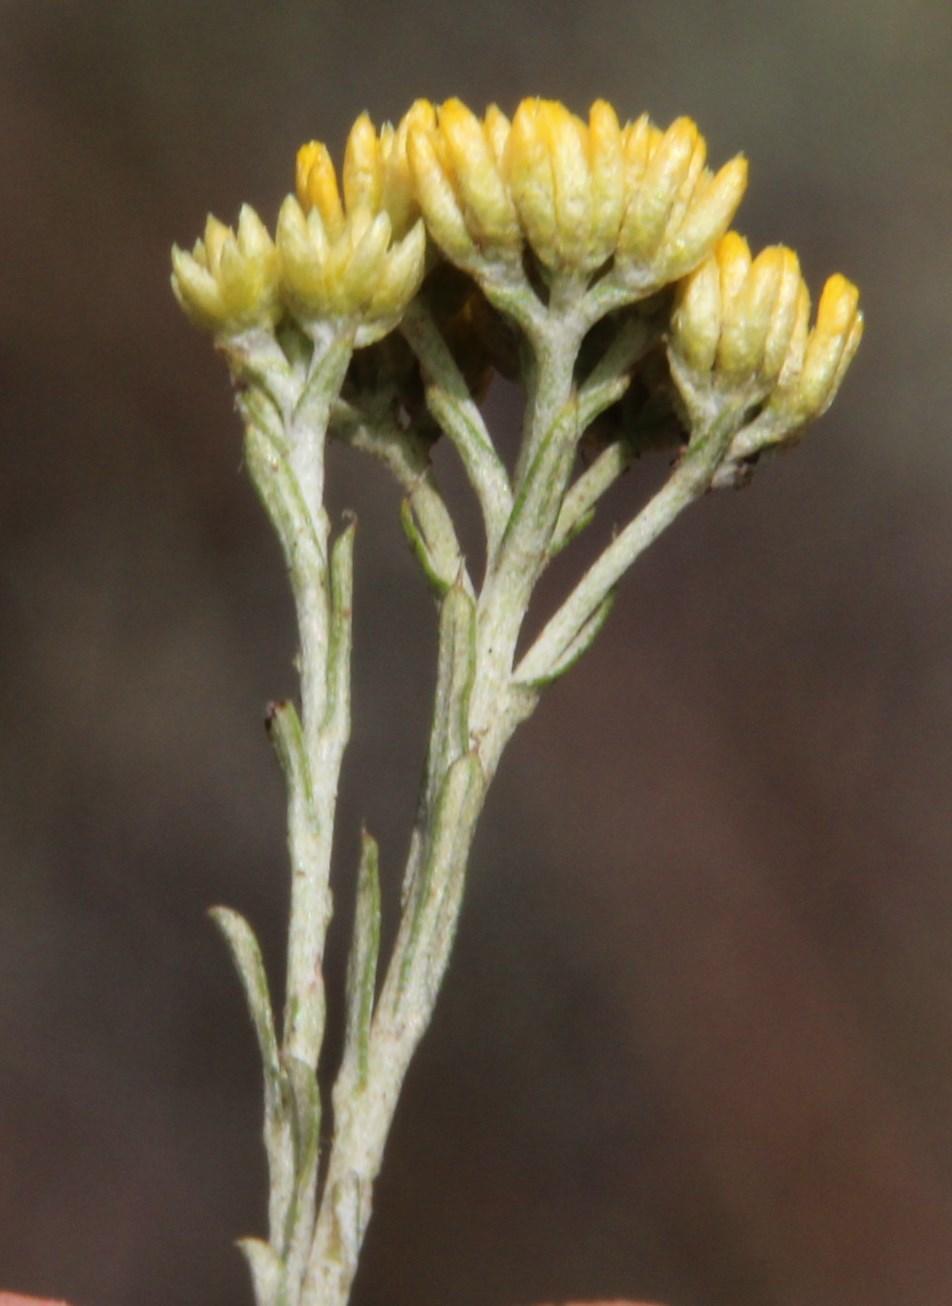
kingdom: Plantae
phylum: Tracheophyta
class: Magnoliopsida
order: Asterales
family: Asteraceae
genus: Helichrysum
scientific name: Helichrysum rutilans
